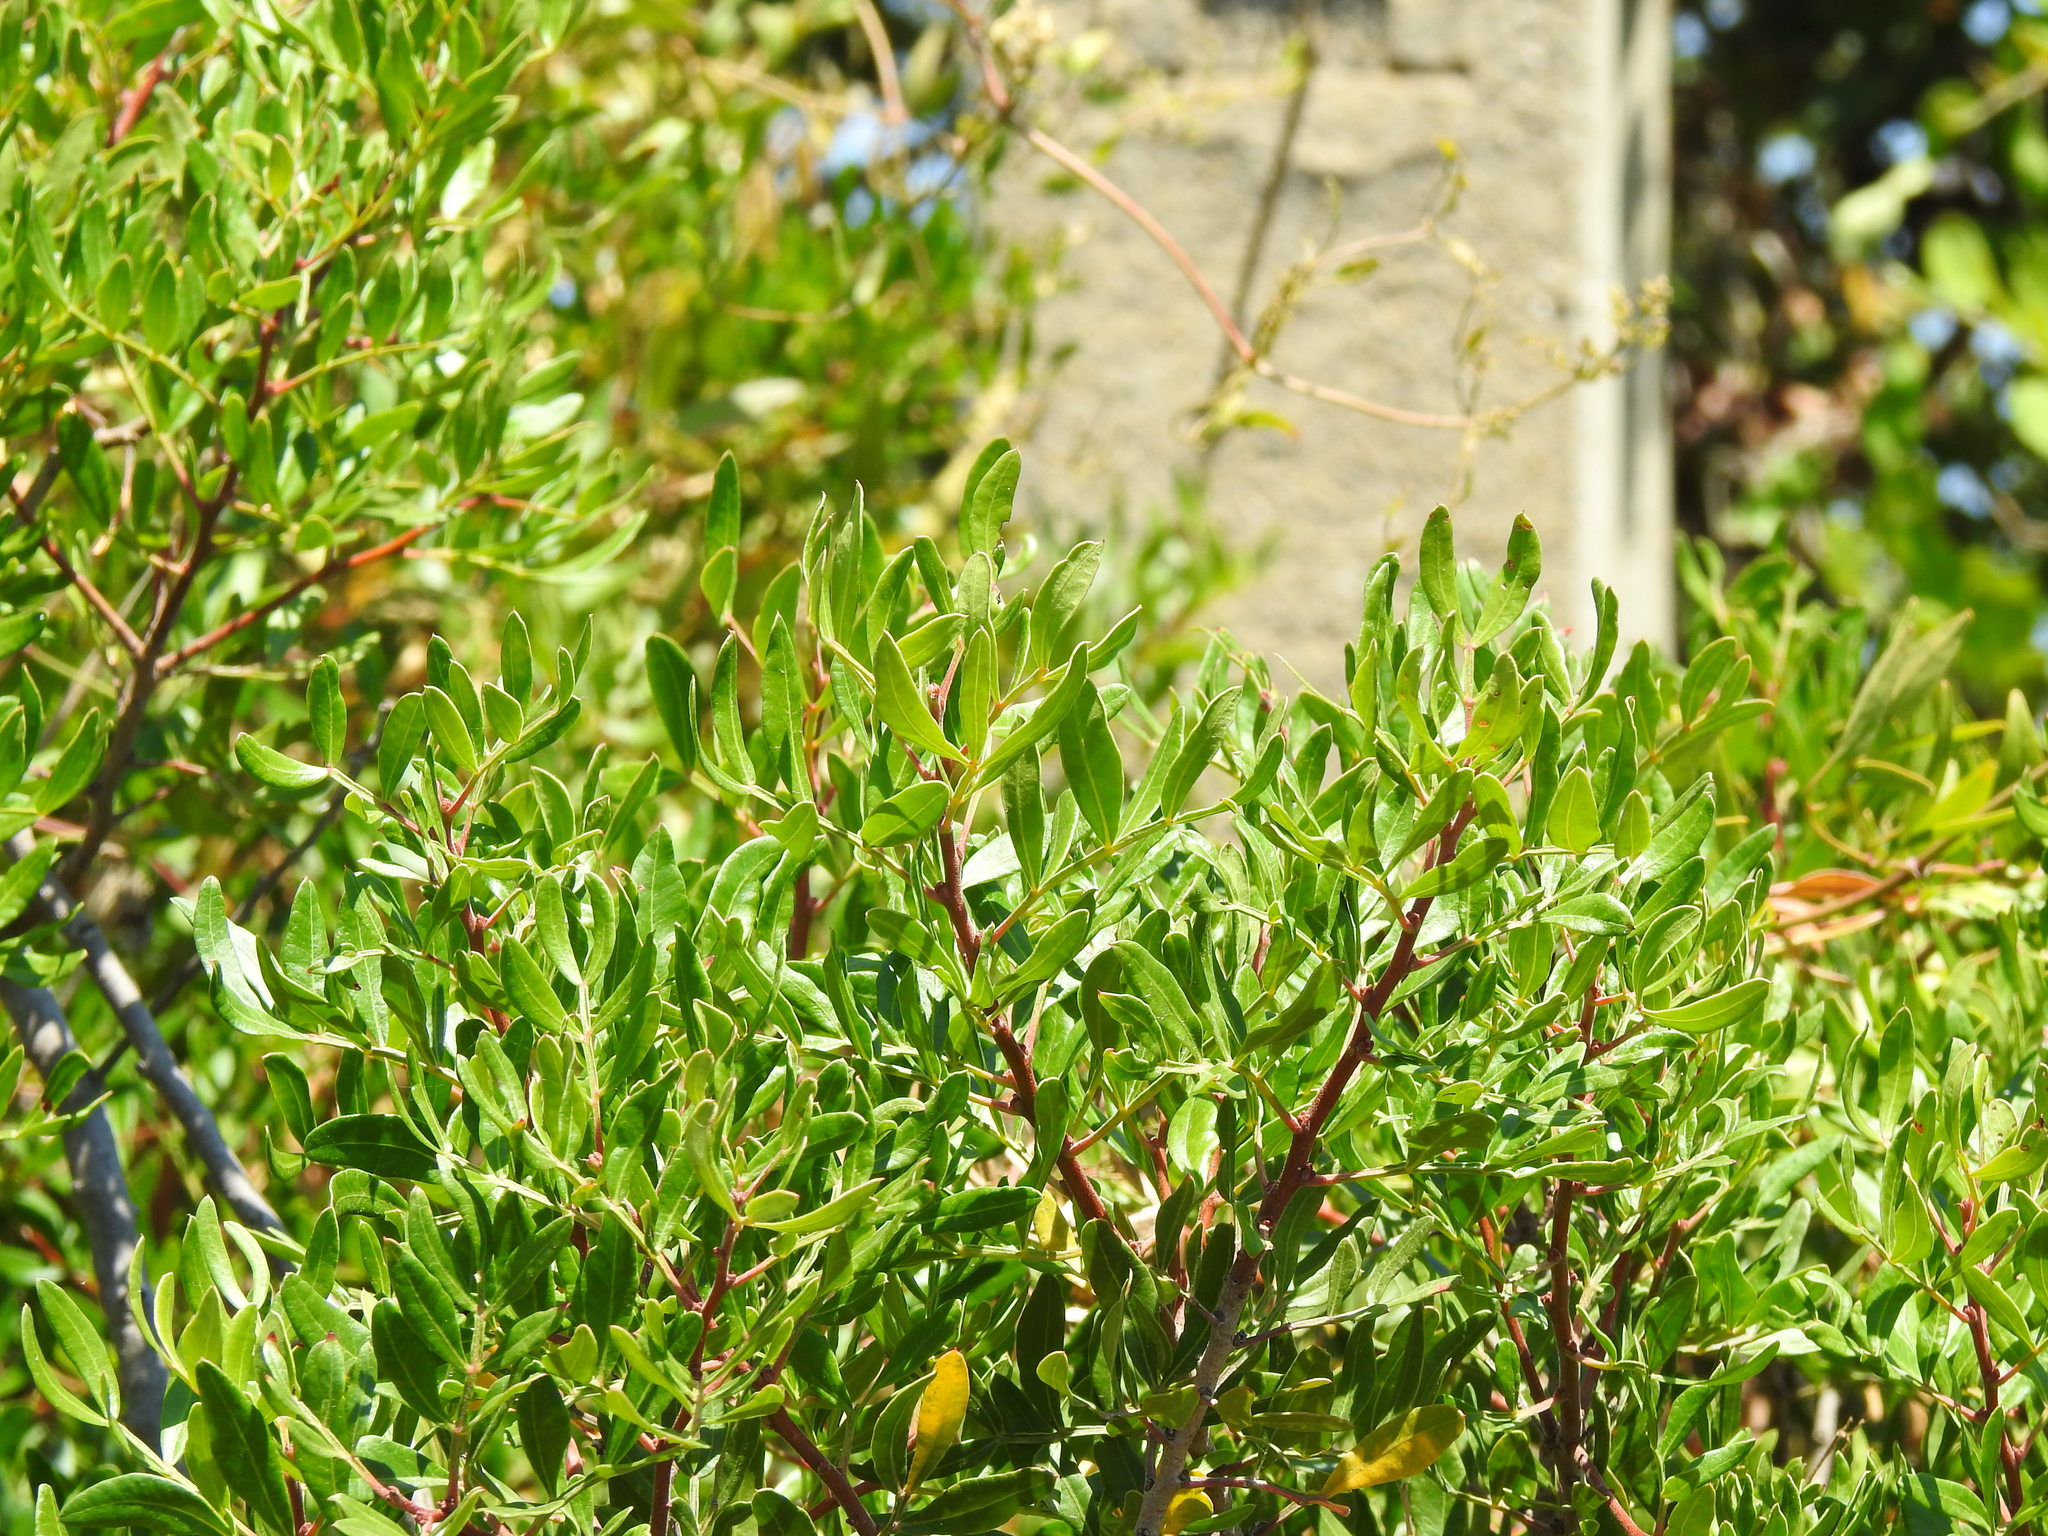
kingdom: Plantae
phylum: Tracheophyta
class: Magnoliopsida
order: Sapindales
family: Anacardiaceae
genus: Pistacia
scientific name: Pistacia lentiscus
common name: Lentisk
